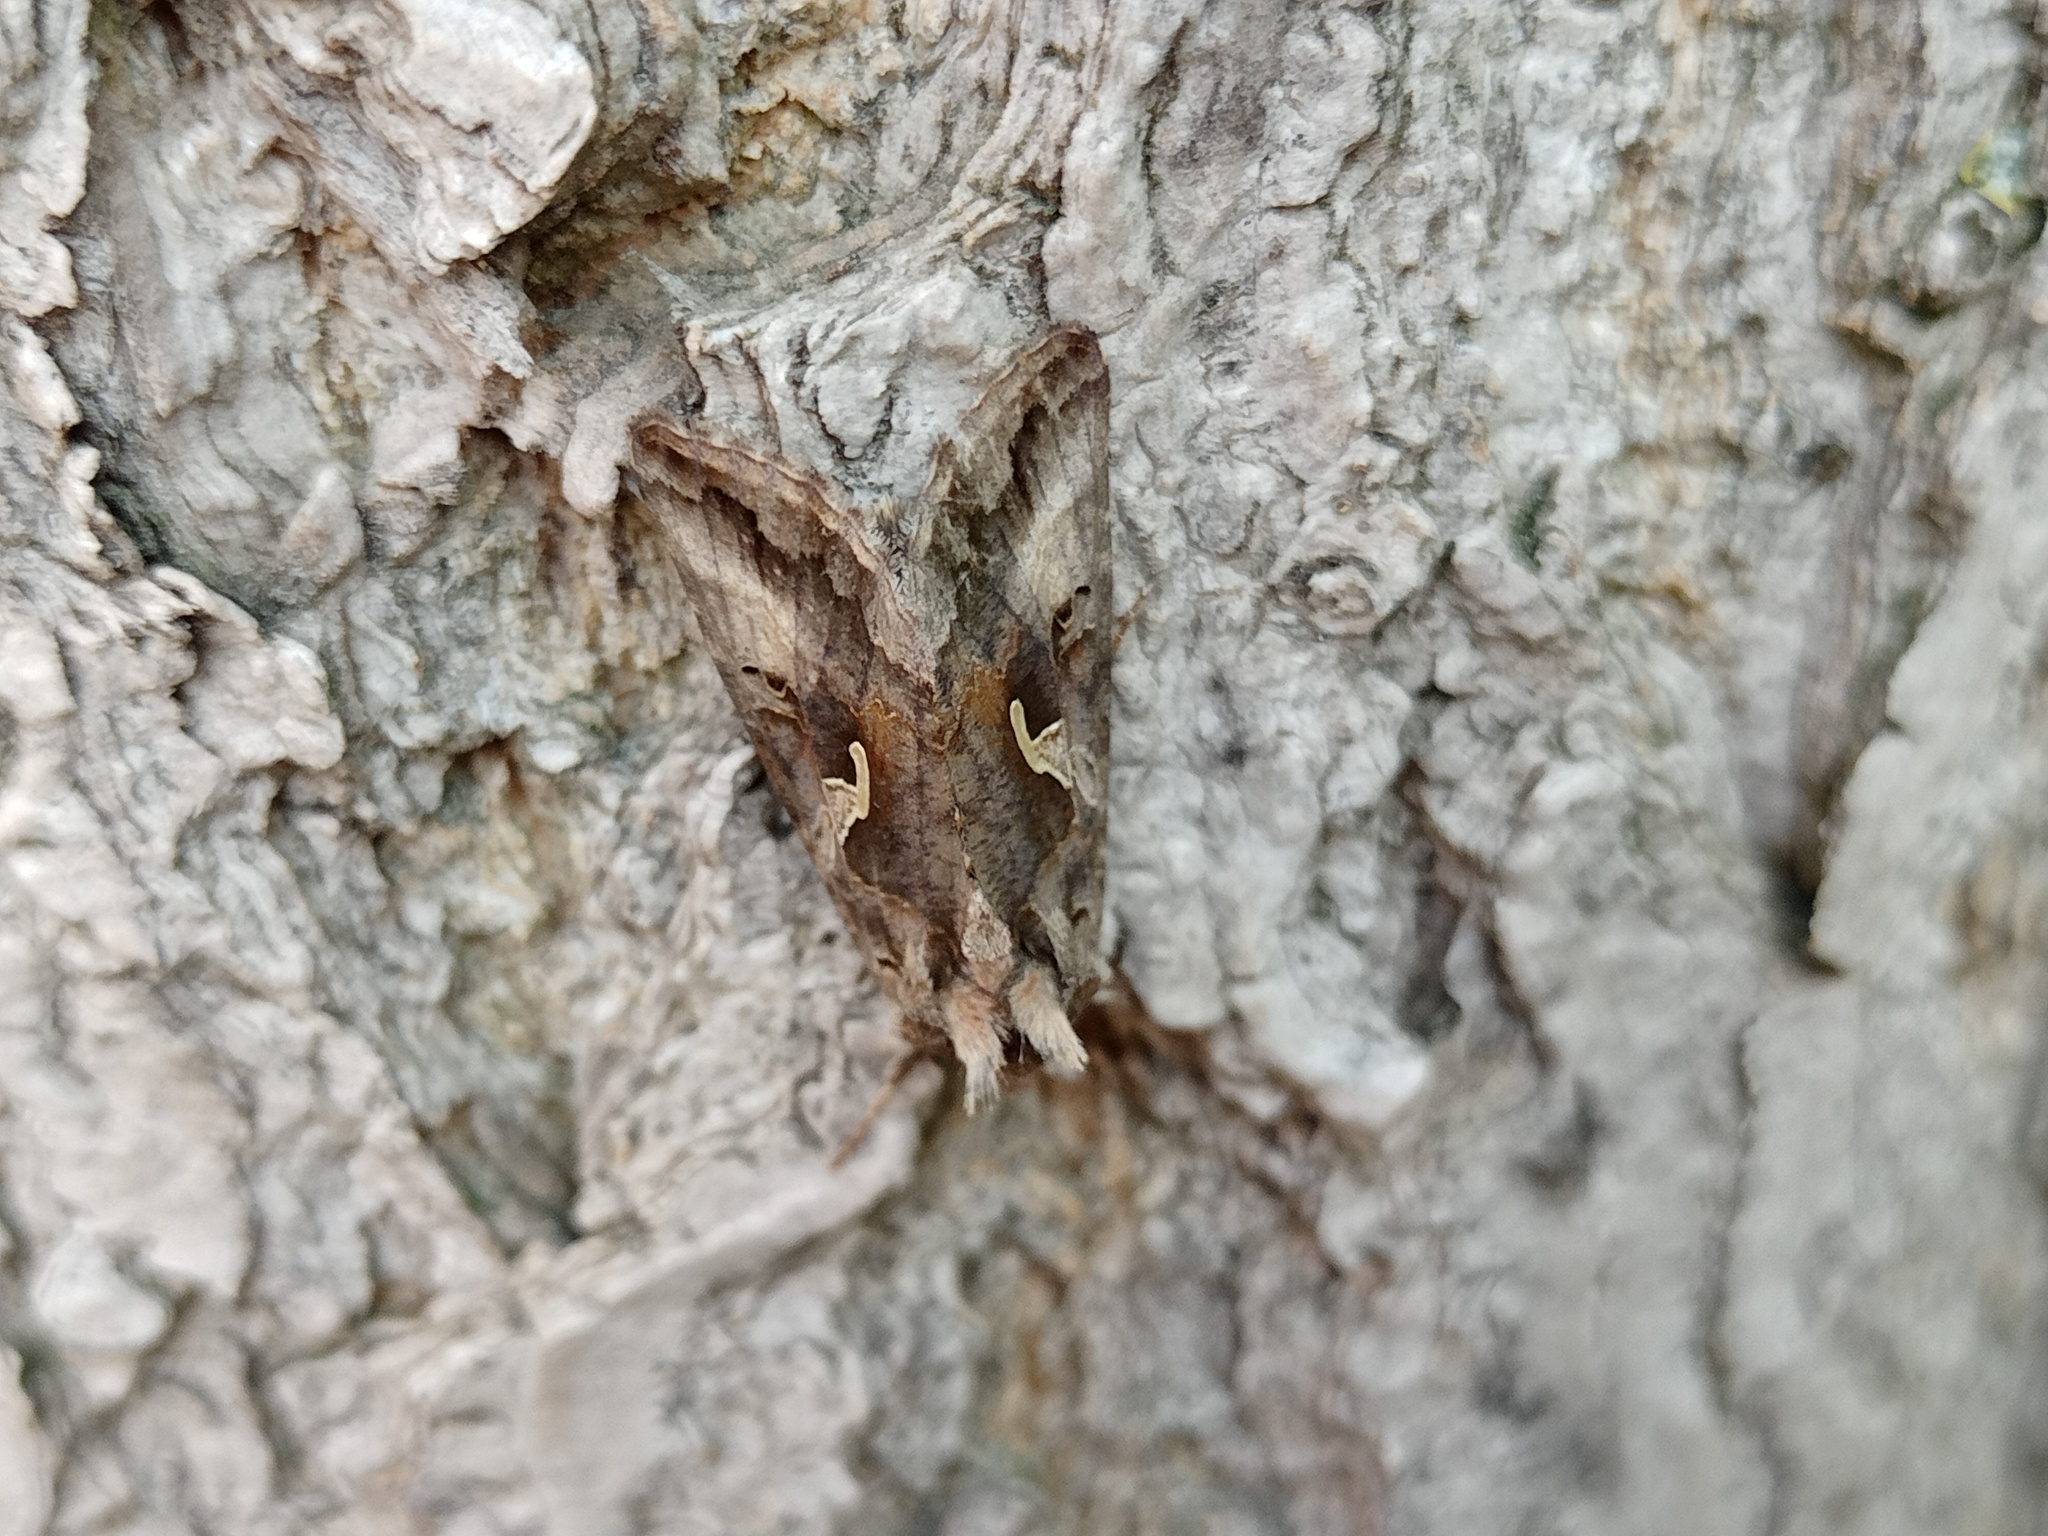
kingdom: Animalia
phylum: Arthropoda
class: Insecta
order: Lepidoptera
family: Noctuidae
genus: Autographa
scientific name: Autographa gamma
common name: Silver y
